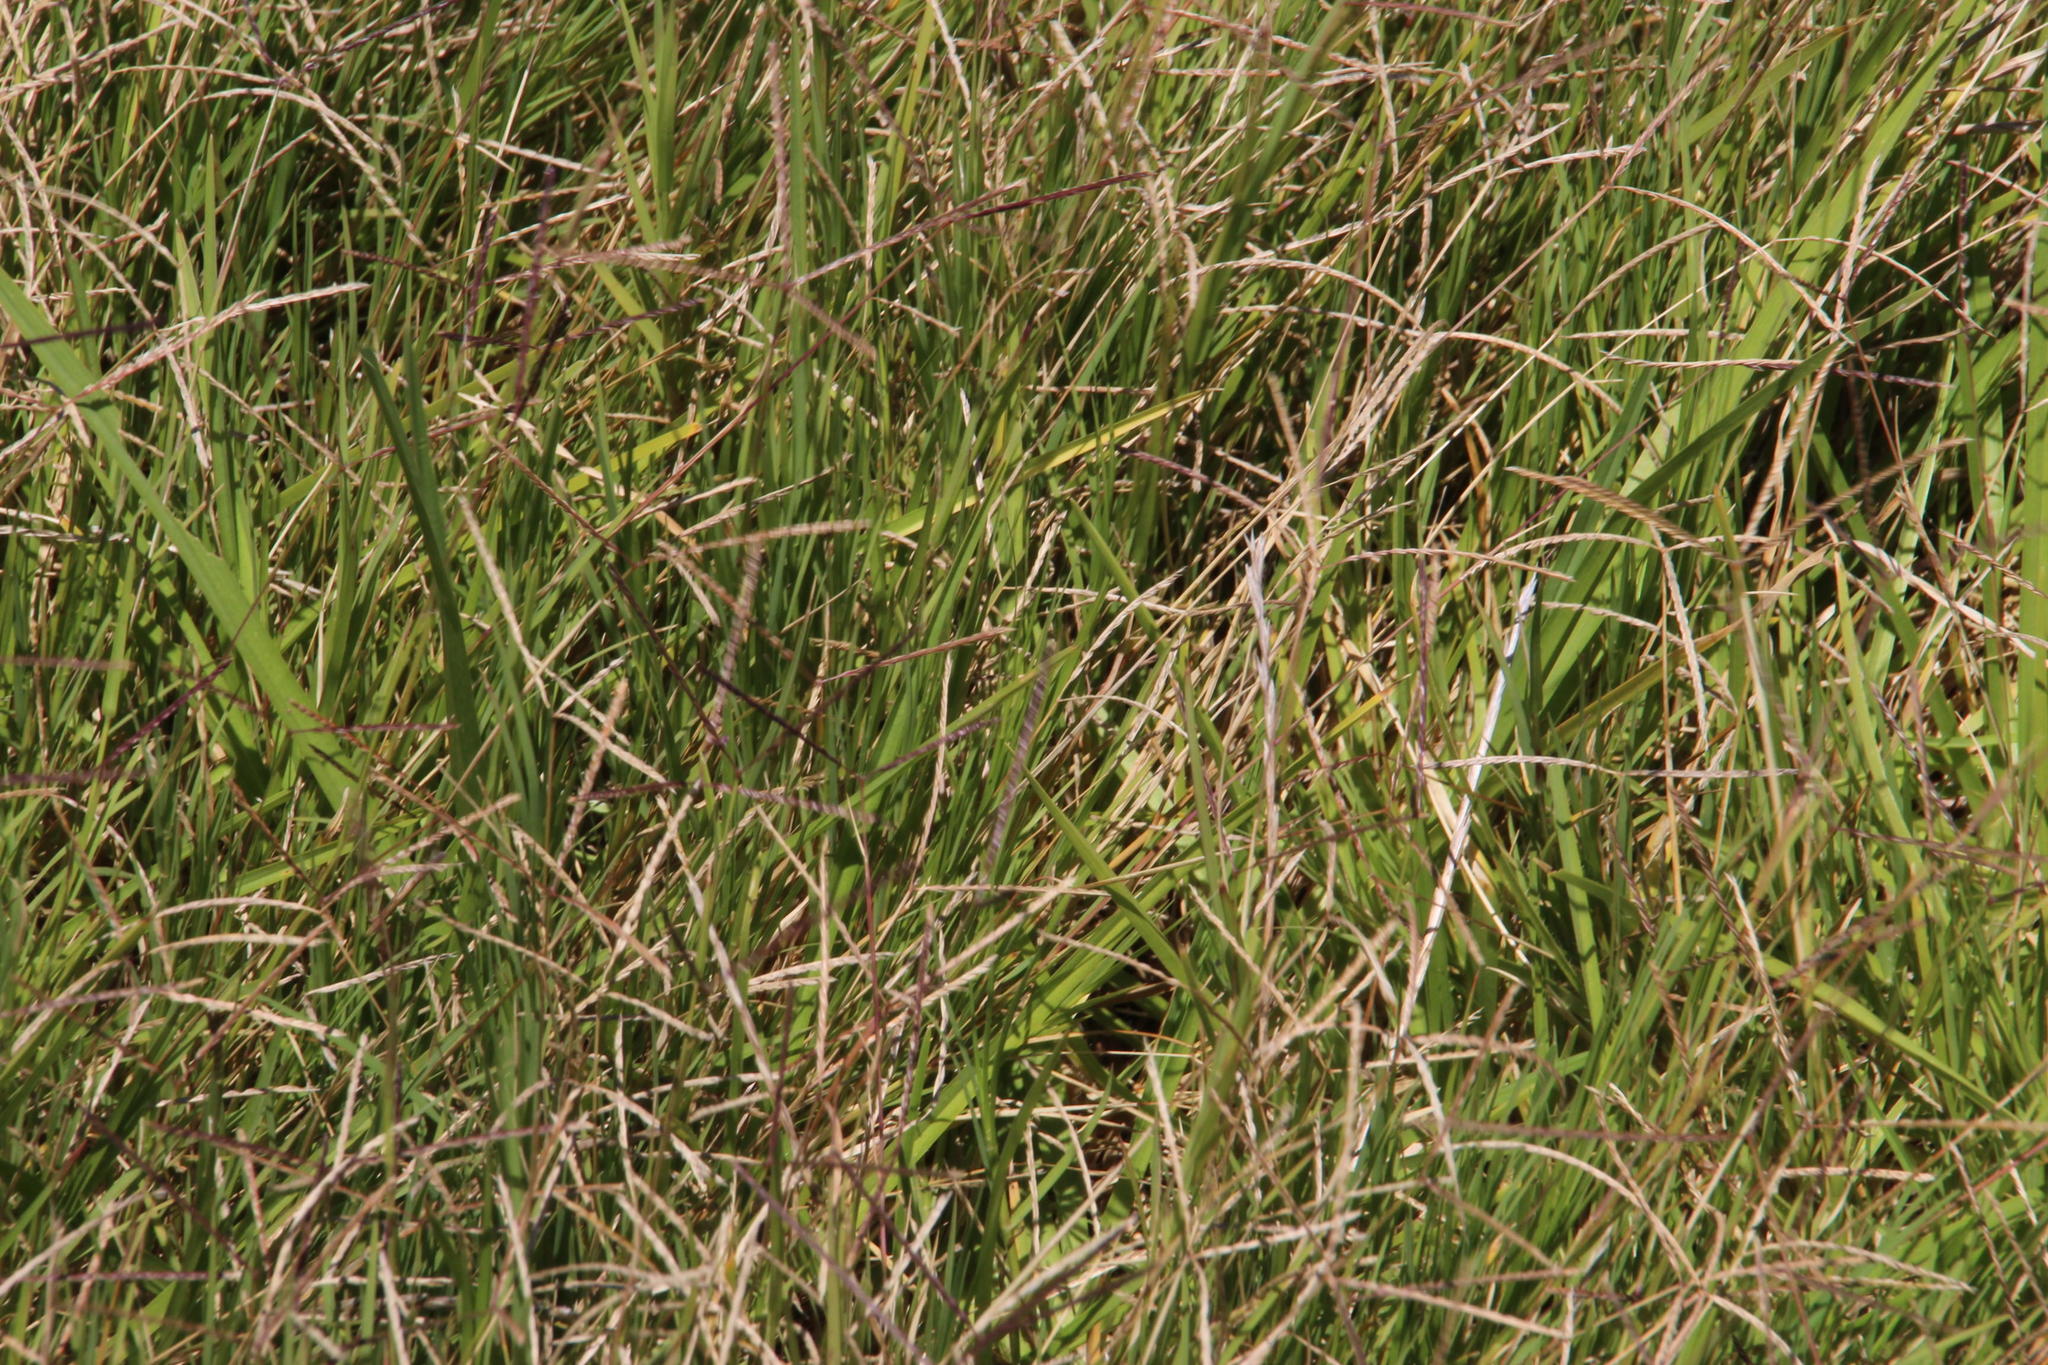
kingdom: Plantae
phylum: Tracheophyta
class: Liliopsida
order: Poales
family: Poaceae
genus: Cynodon
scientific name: Cynodon dactylon
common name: Bermuda grass
